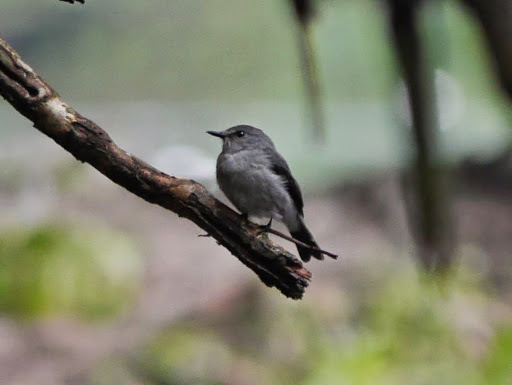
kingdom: Animalia
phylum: Chordata
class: Aves
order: Passeriformes
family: Muscicapidae
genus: Muscicapa
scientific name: Muscicapa cassini
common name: Cassin's flycatcher
